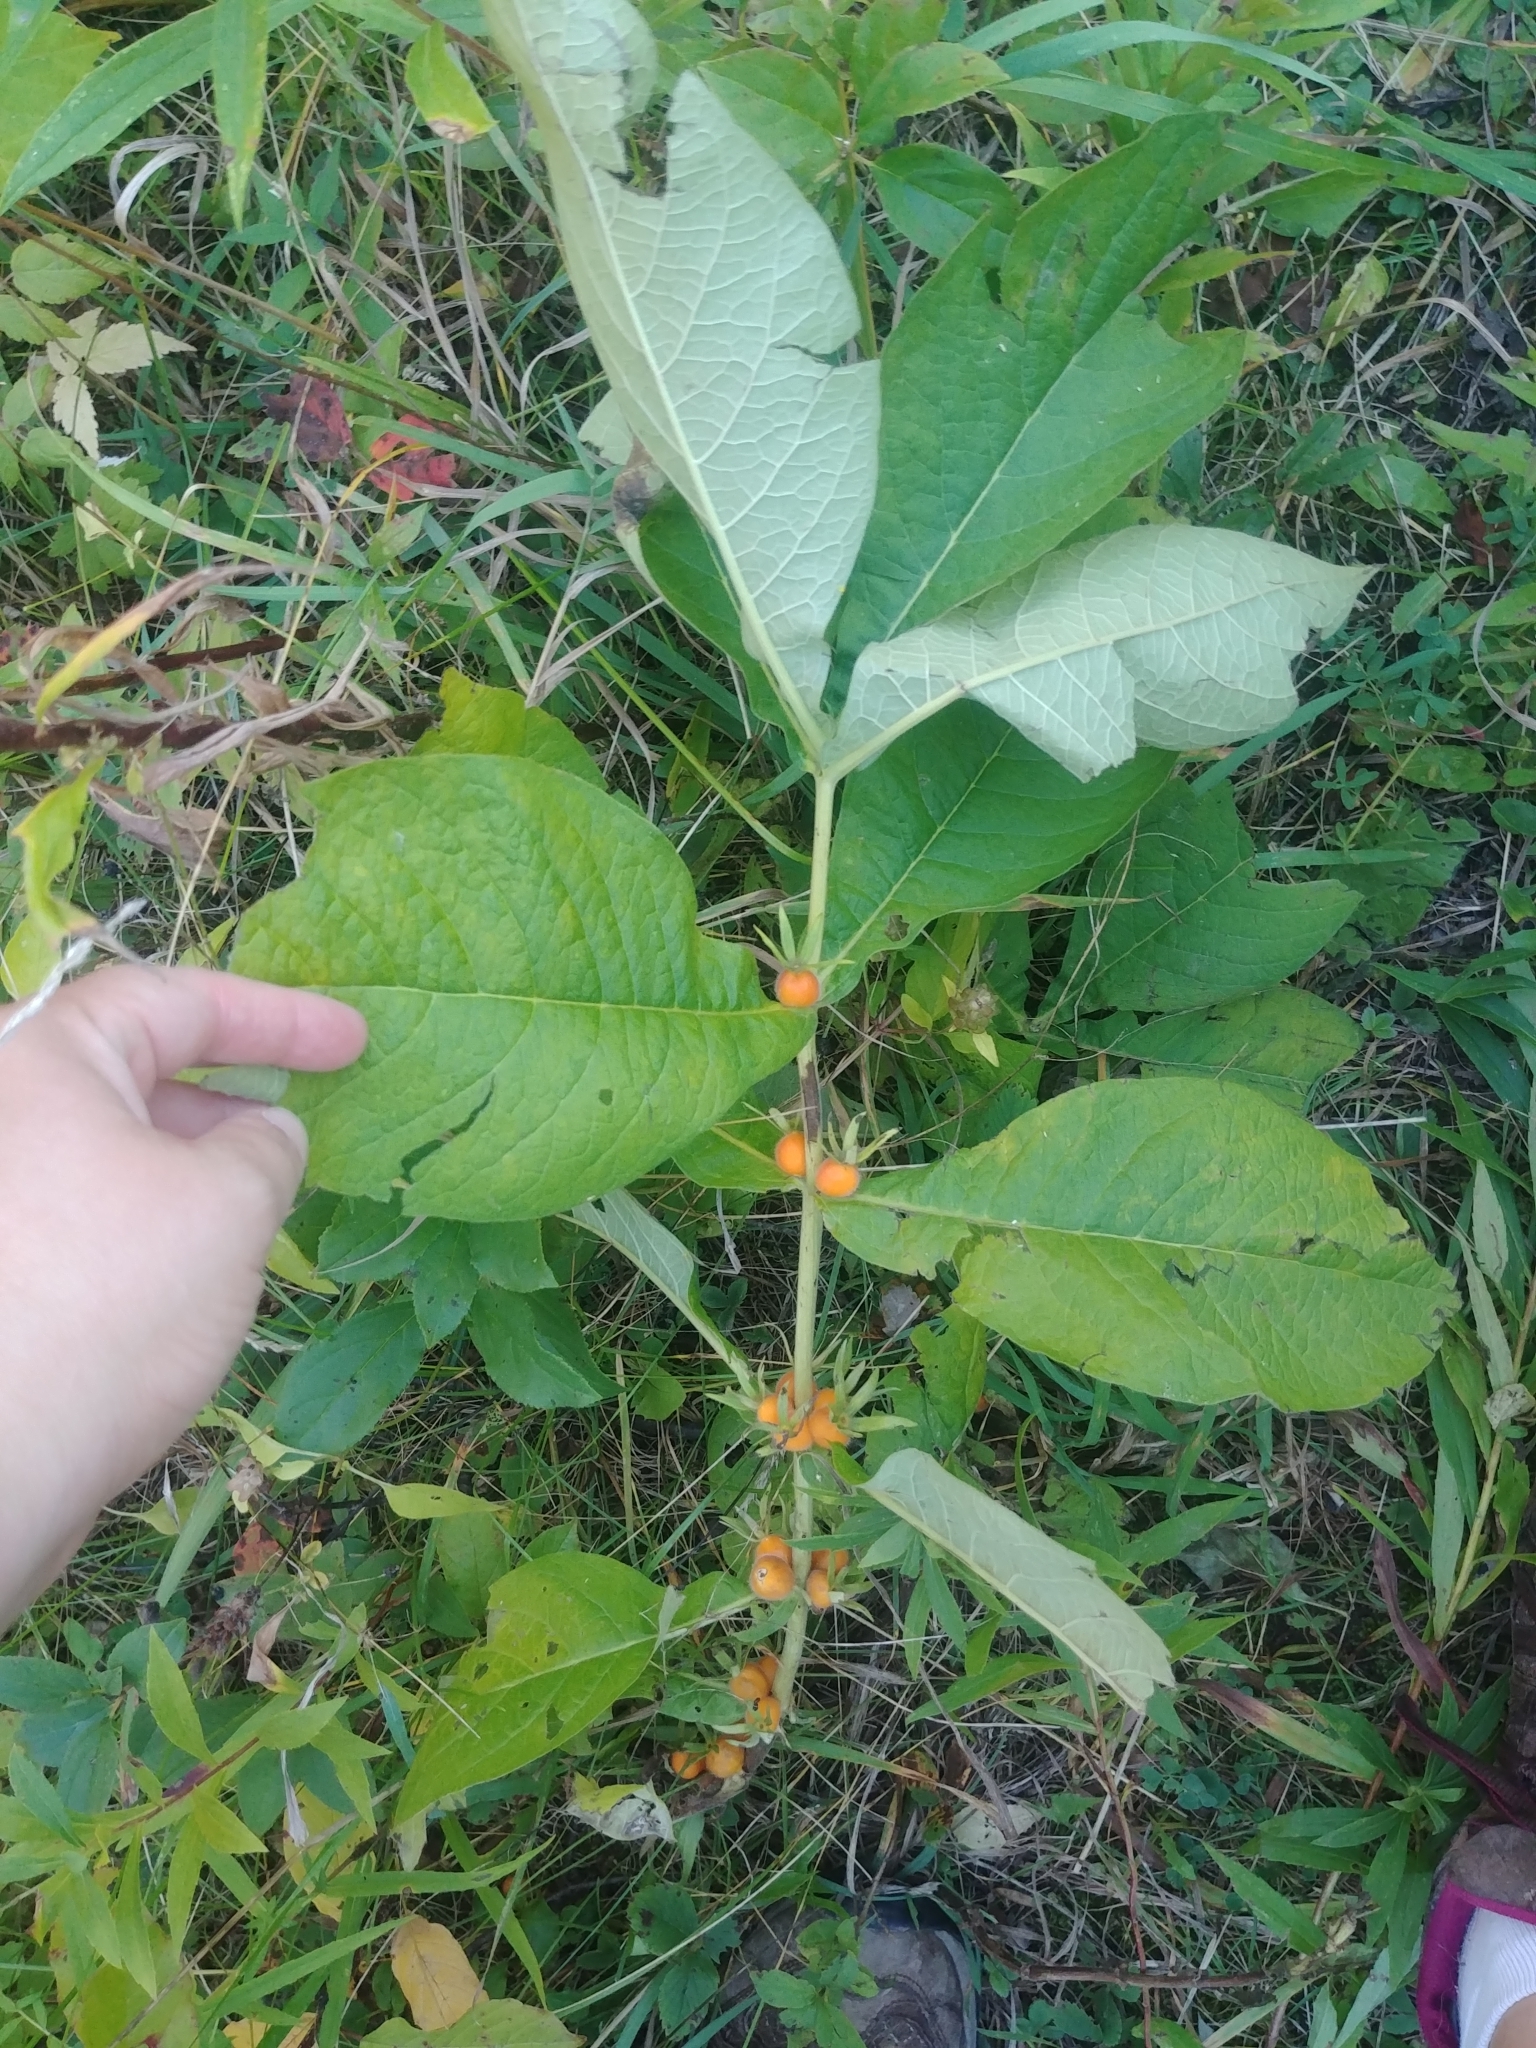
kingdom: Plantae
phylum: Tracheophyta
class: Magnoliopsida
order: Dipsacales
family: Caprifoliaceae
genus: Triosteum
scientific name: Triosteum aurantiacum
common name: Coffee tinker's-weed
